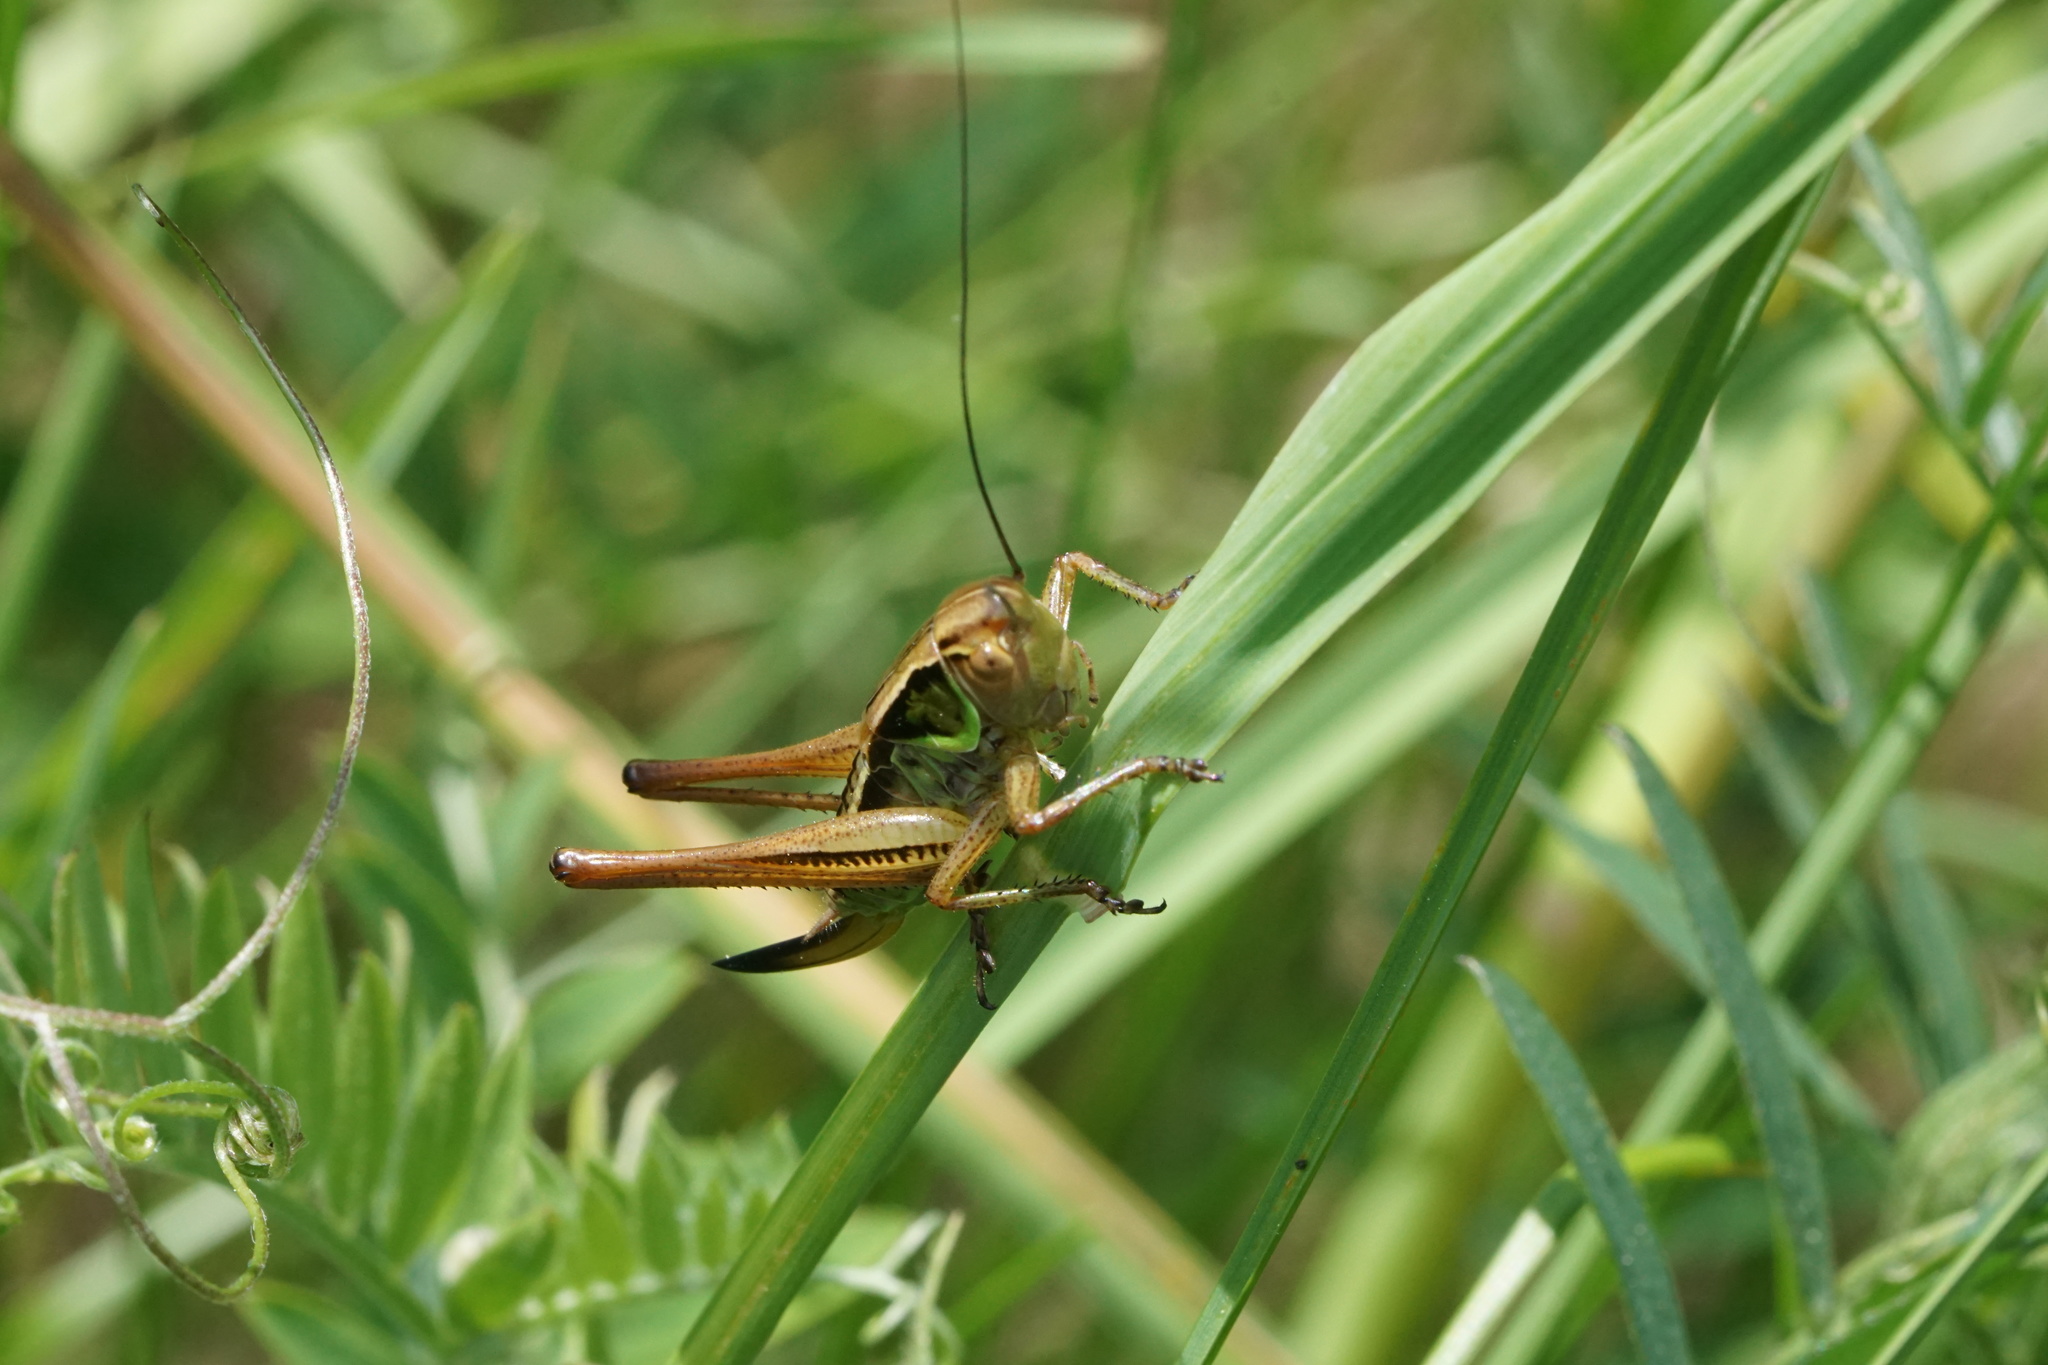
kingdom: Animalia
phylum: Arthropoda
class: Insecta
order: Orthoptera
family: Tettigoniidae
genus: Roeseliana
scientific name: Roeseliana roeselii
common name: Roesel's bush cricket
